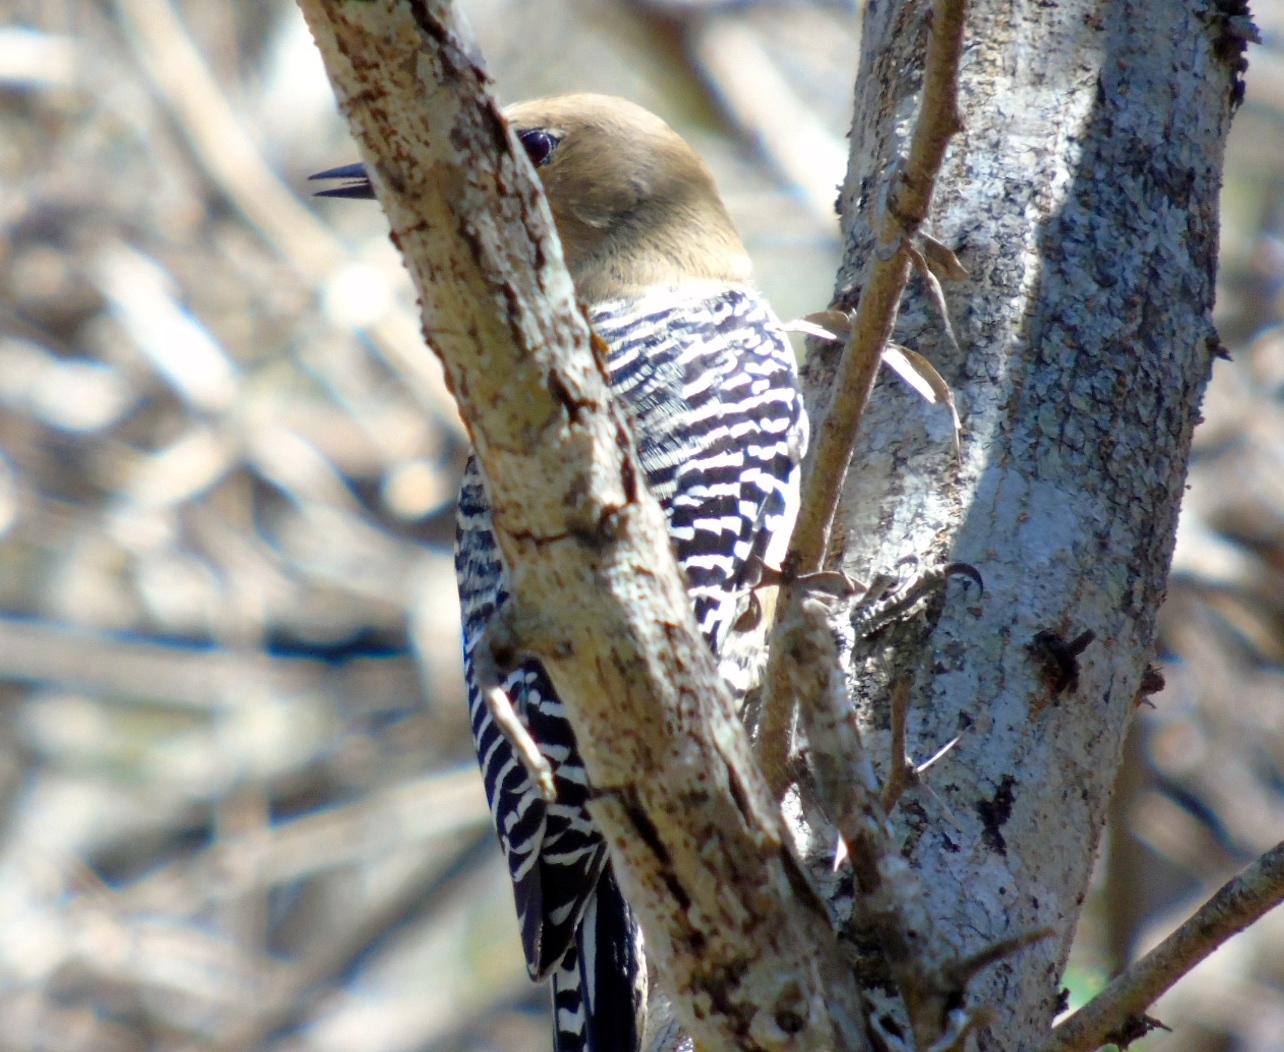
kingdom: Animalia
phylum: Chordata
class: Aves
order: Piciformes
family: Picidae
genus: Melanerpes
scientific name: Melanerpes uropygialis
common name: Gila woodpecker
